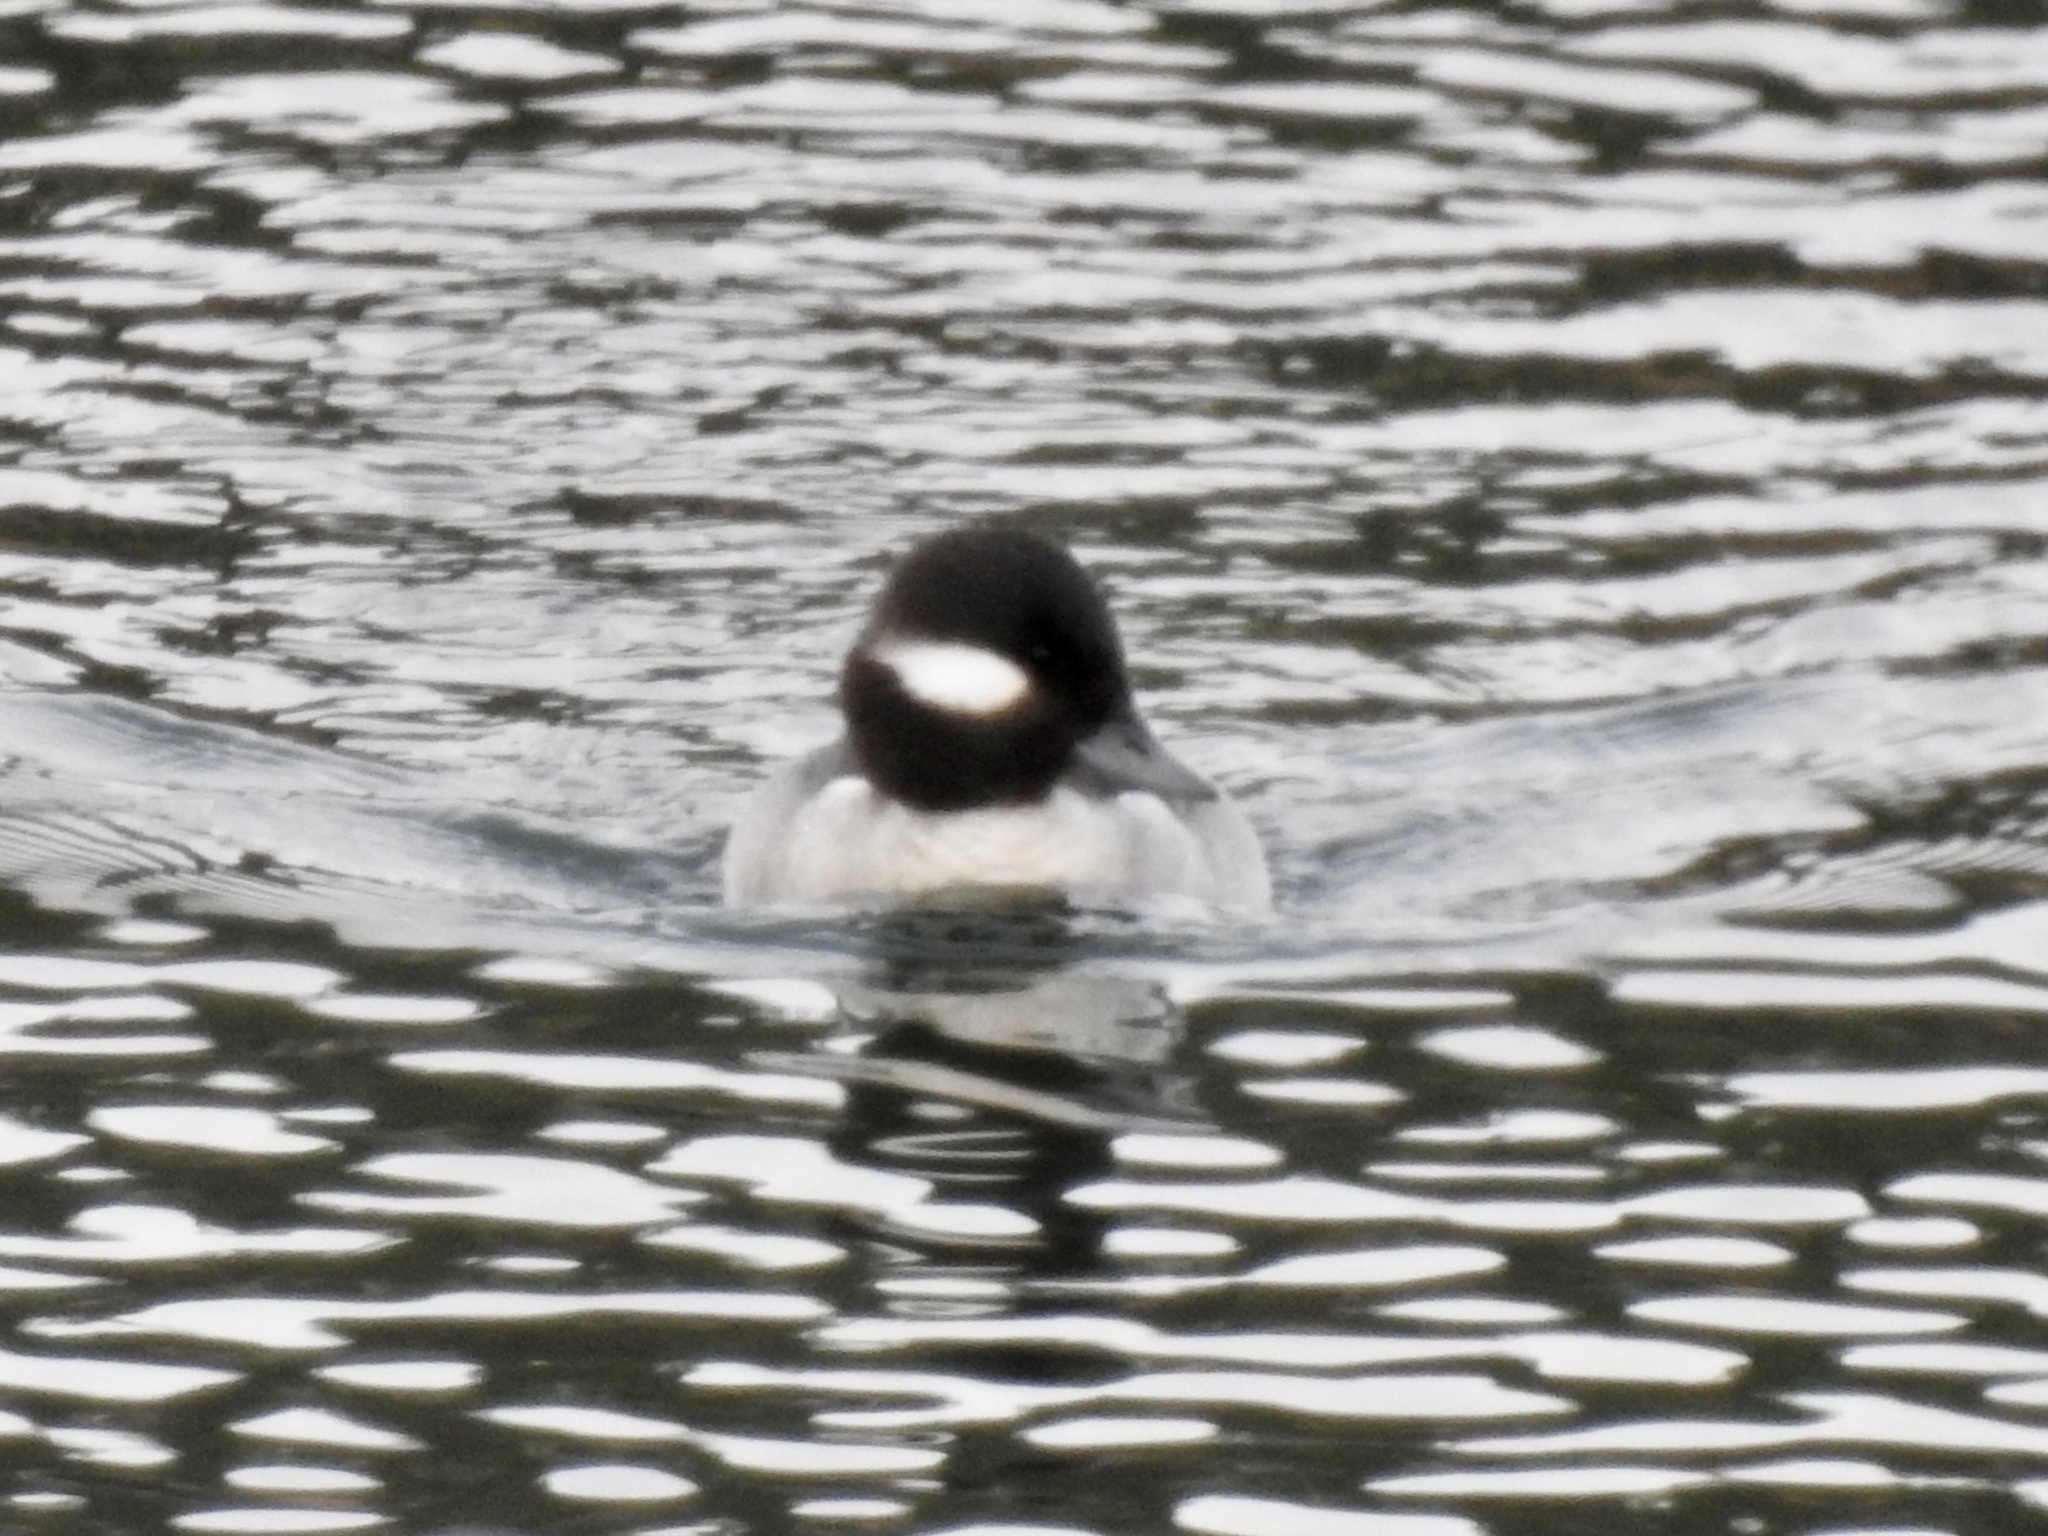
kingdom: Animalia
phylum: Chordata
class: Aves
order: Anseriformes
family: Anatidae
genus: Bucephala
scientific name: Bucephala albeola
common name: Bufflehead
